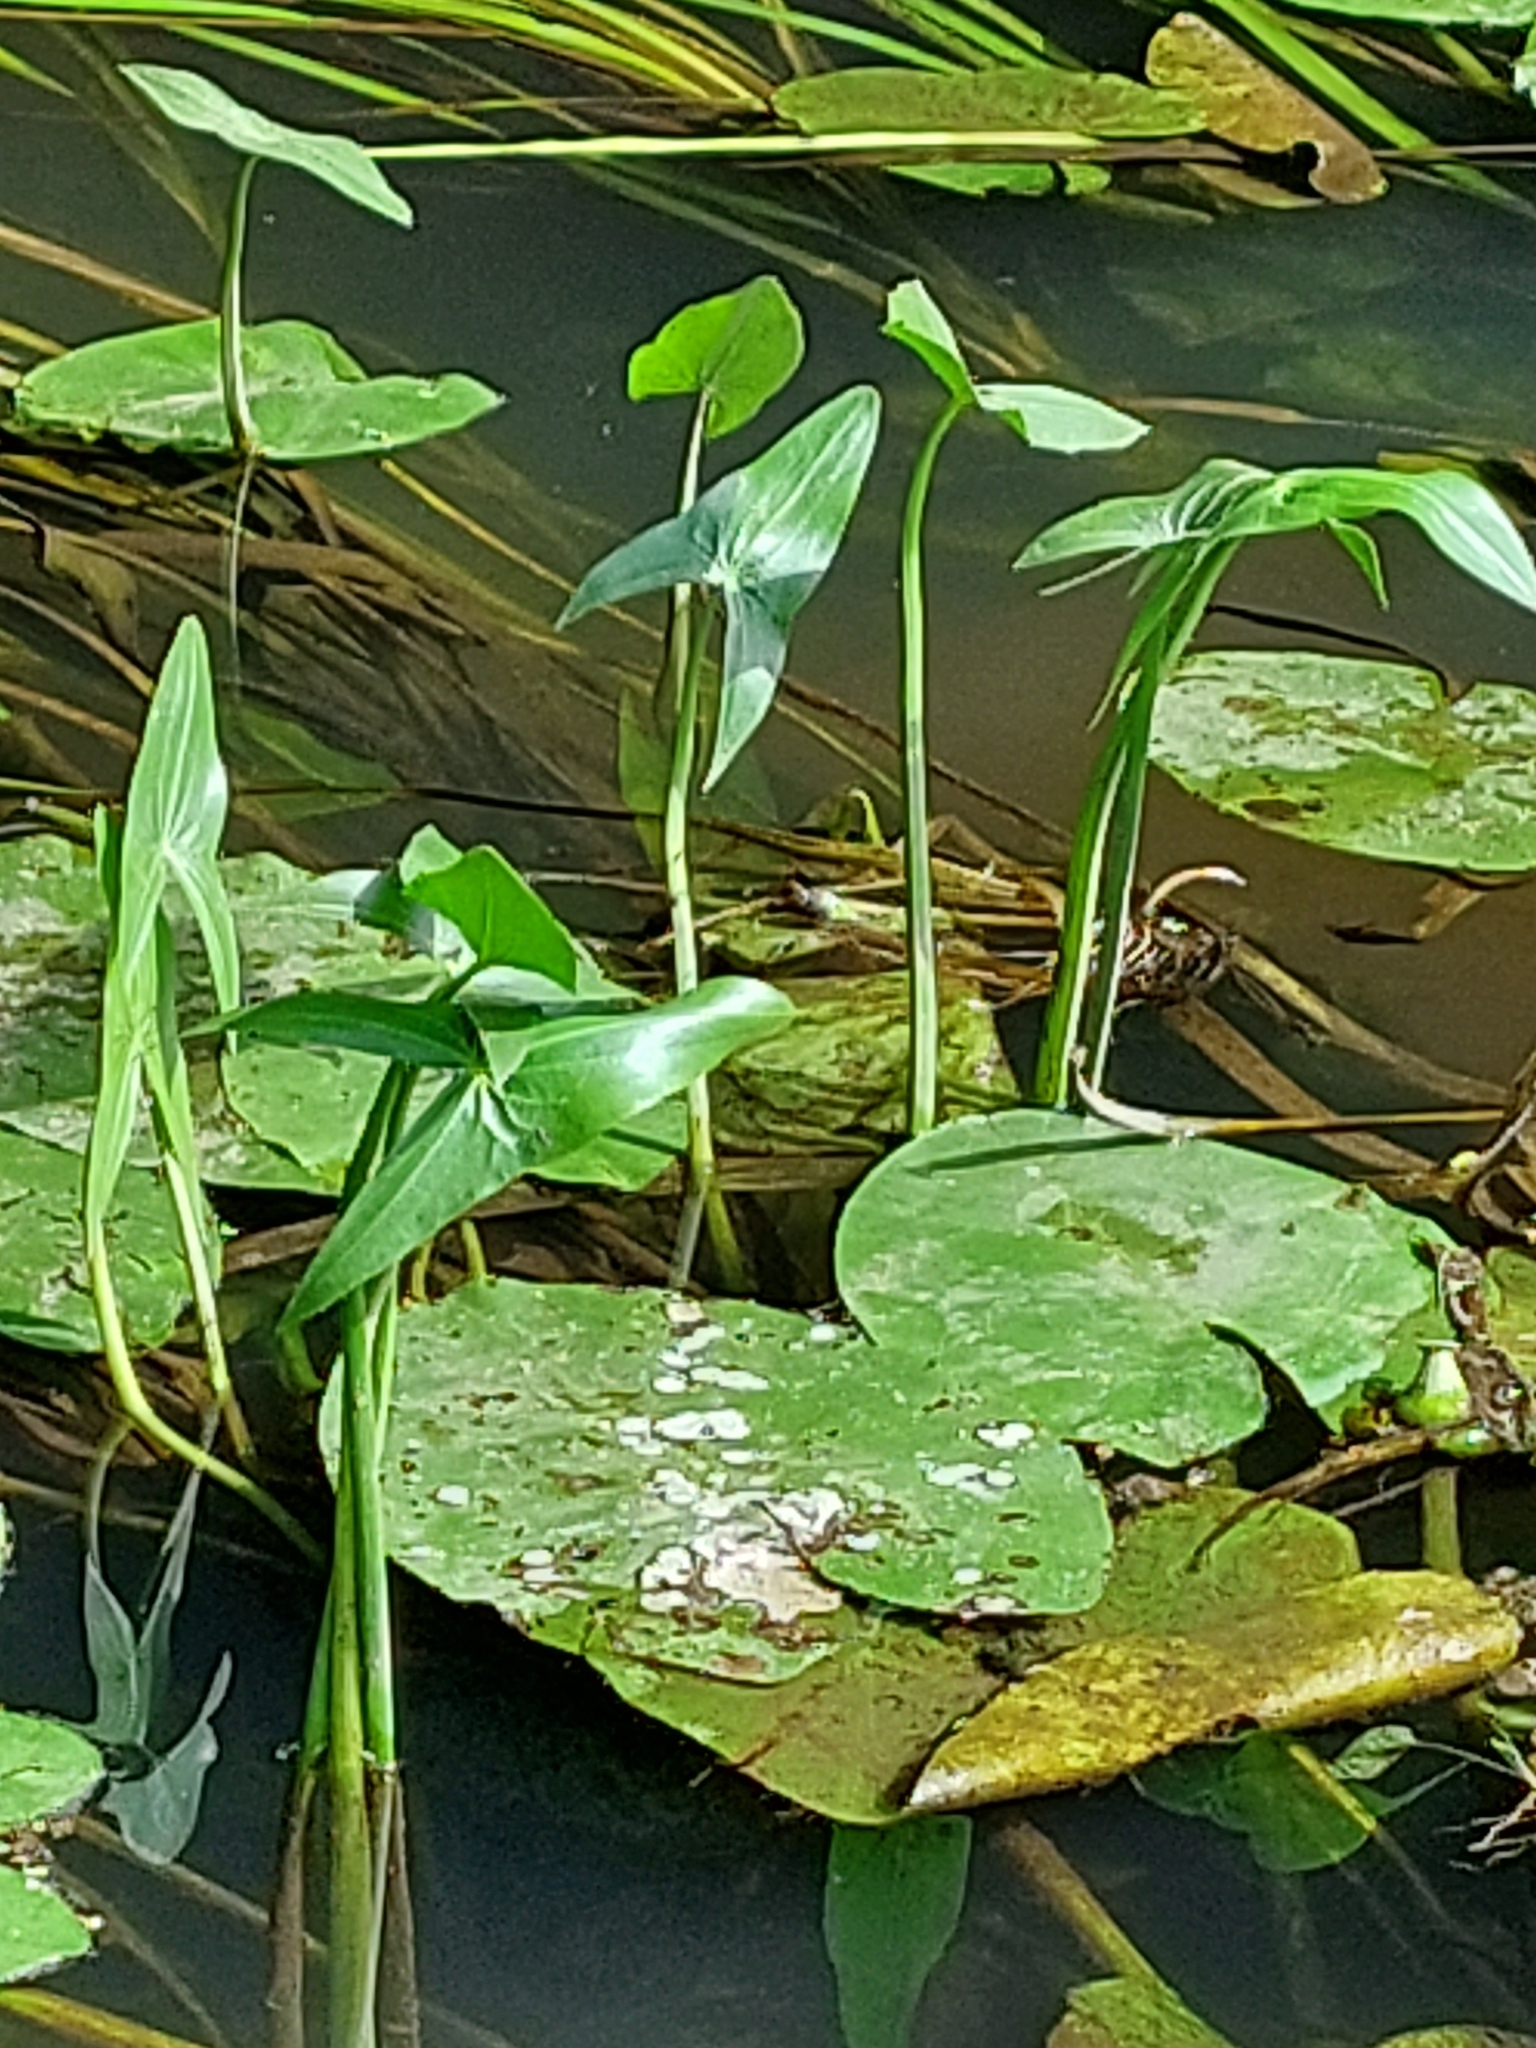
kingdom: Plantae
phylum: Tracheophyta
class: Liliopsida
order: Alismatales
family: Alismataceae
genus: Sagittaria
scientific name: Sagittaria sagittifolia
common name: Arrowhead
